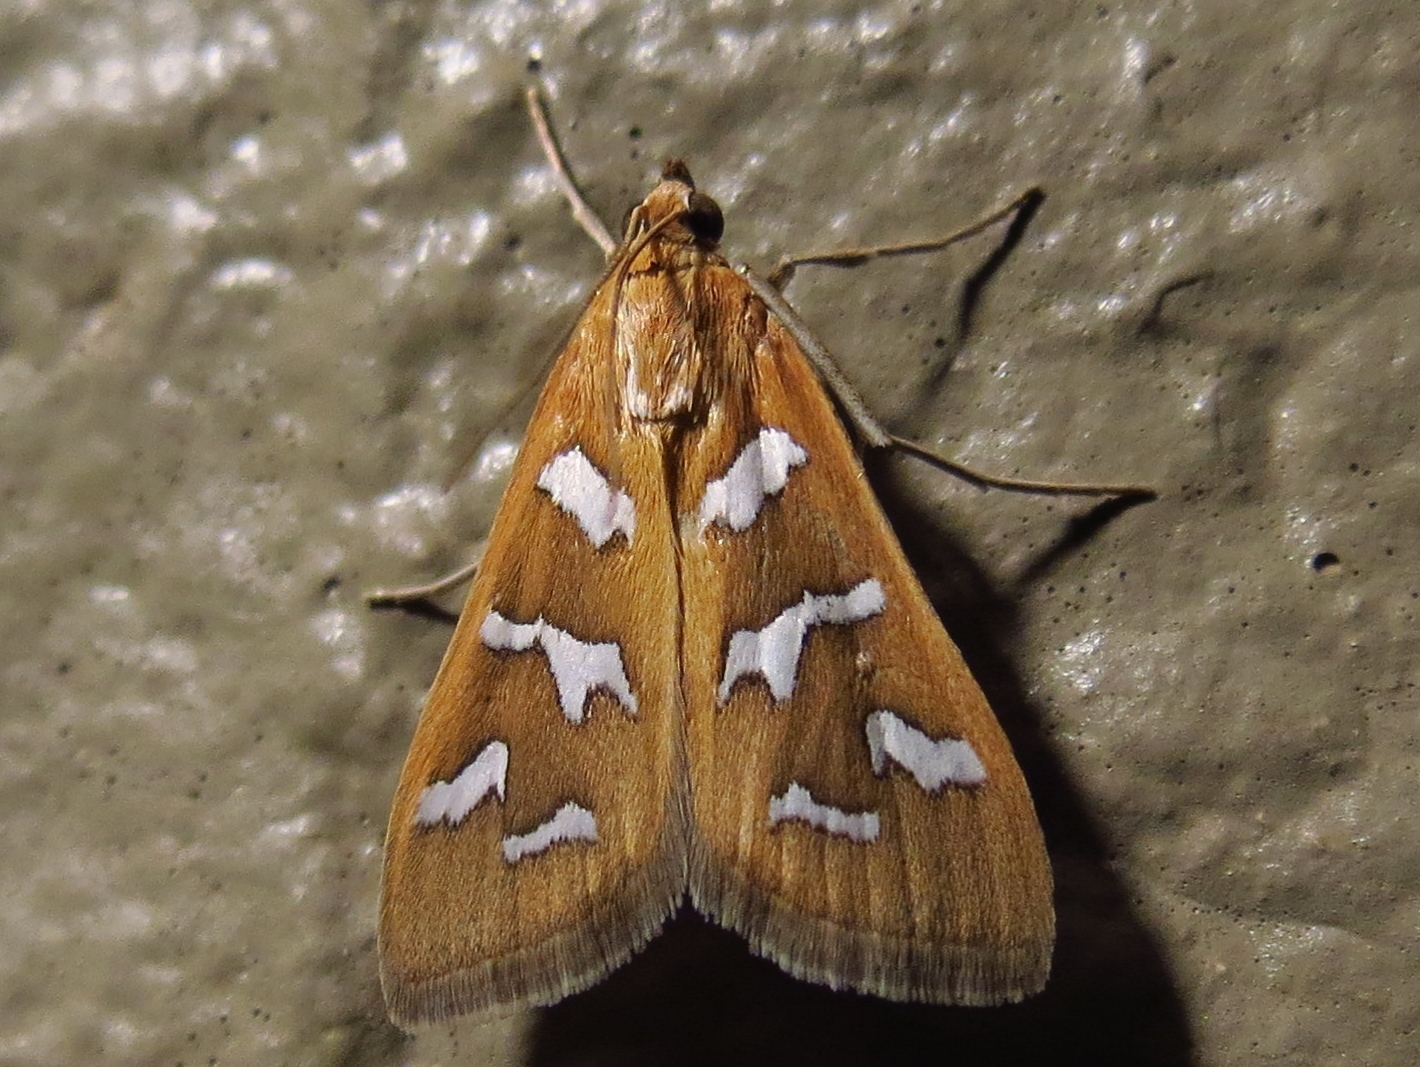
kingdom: Animalia
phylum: Arthropoda
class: Insecta
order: Lepidoptera
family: Crambidae
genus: Diastictis
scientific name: Diastictis fracturalis
